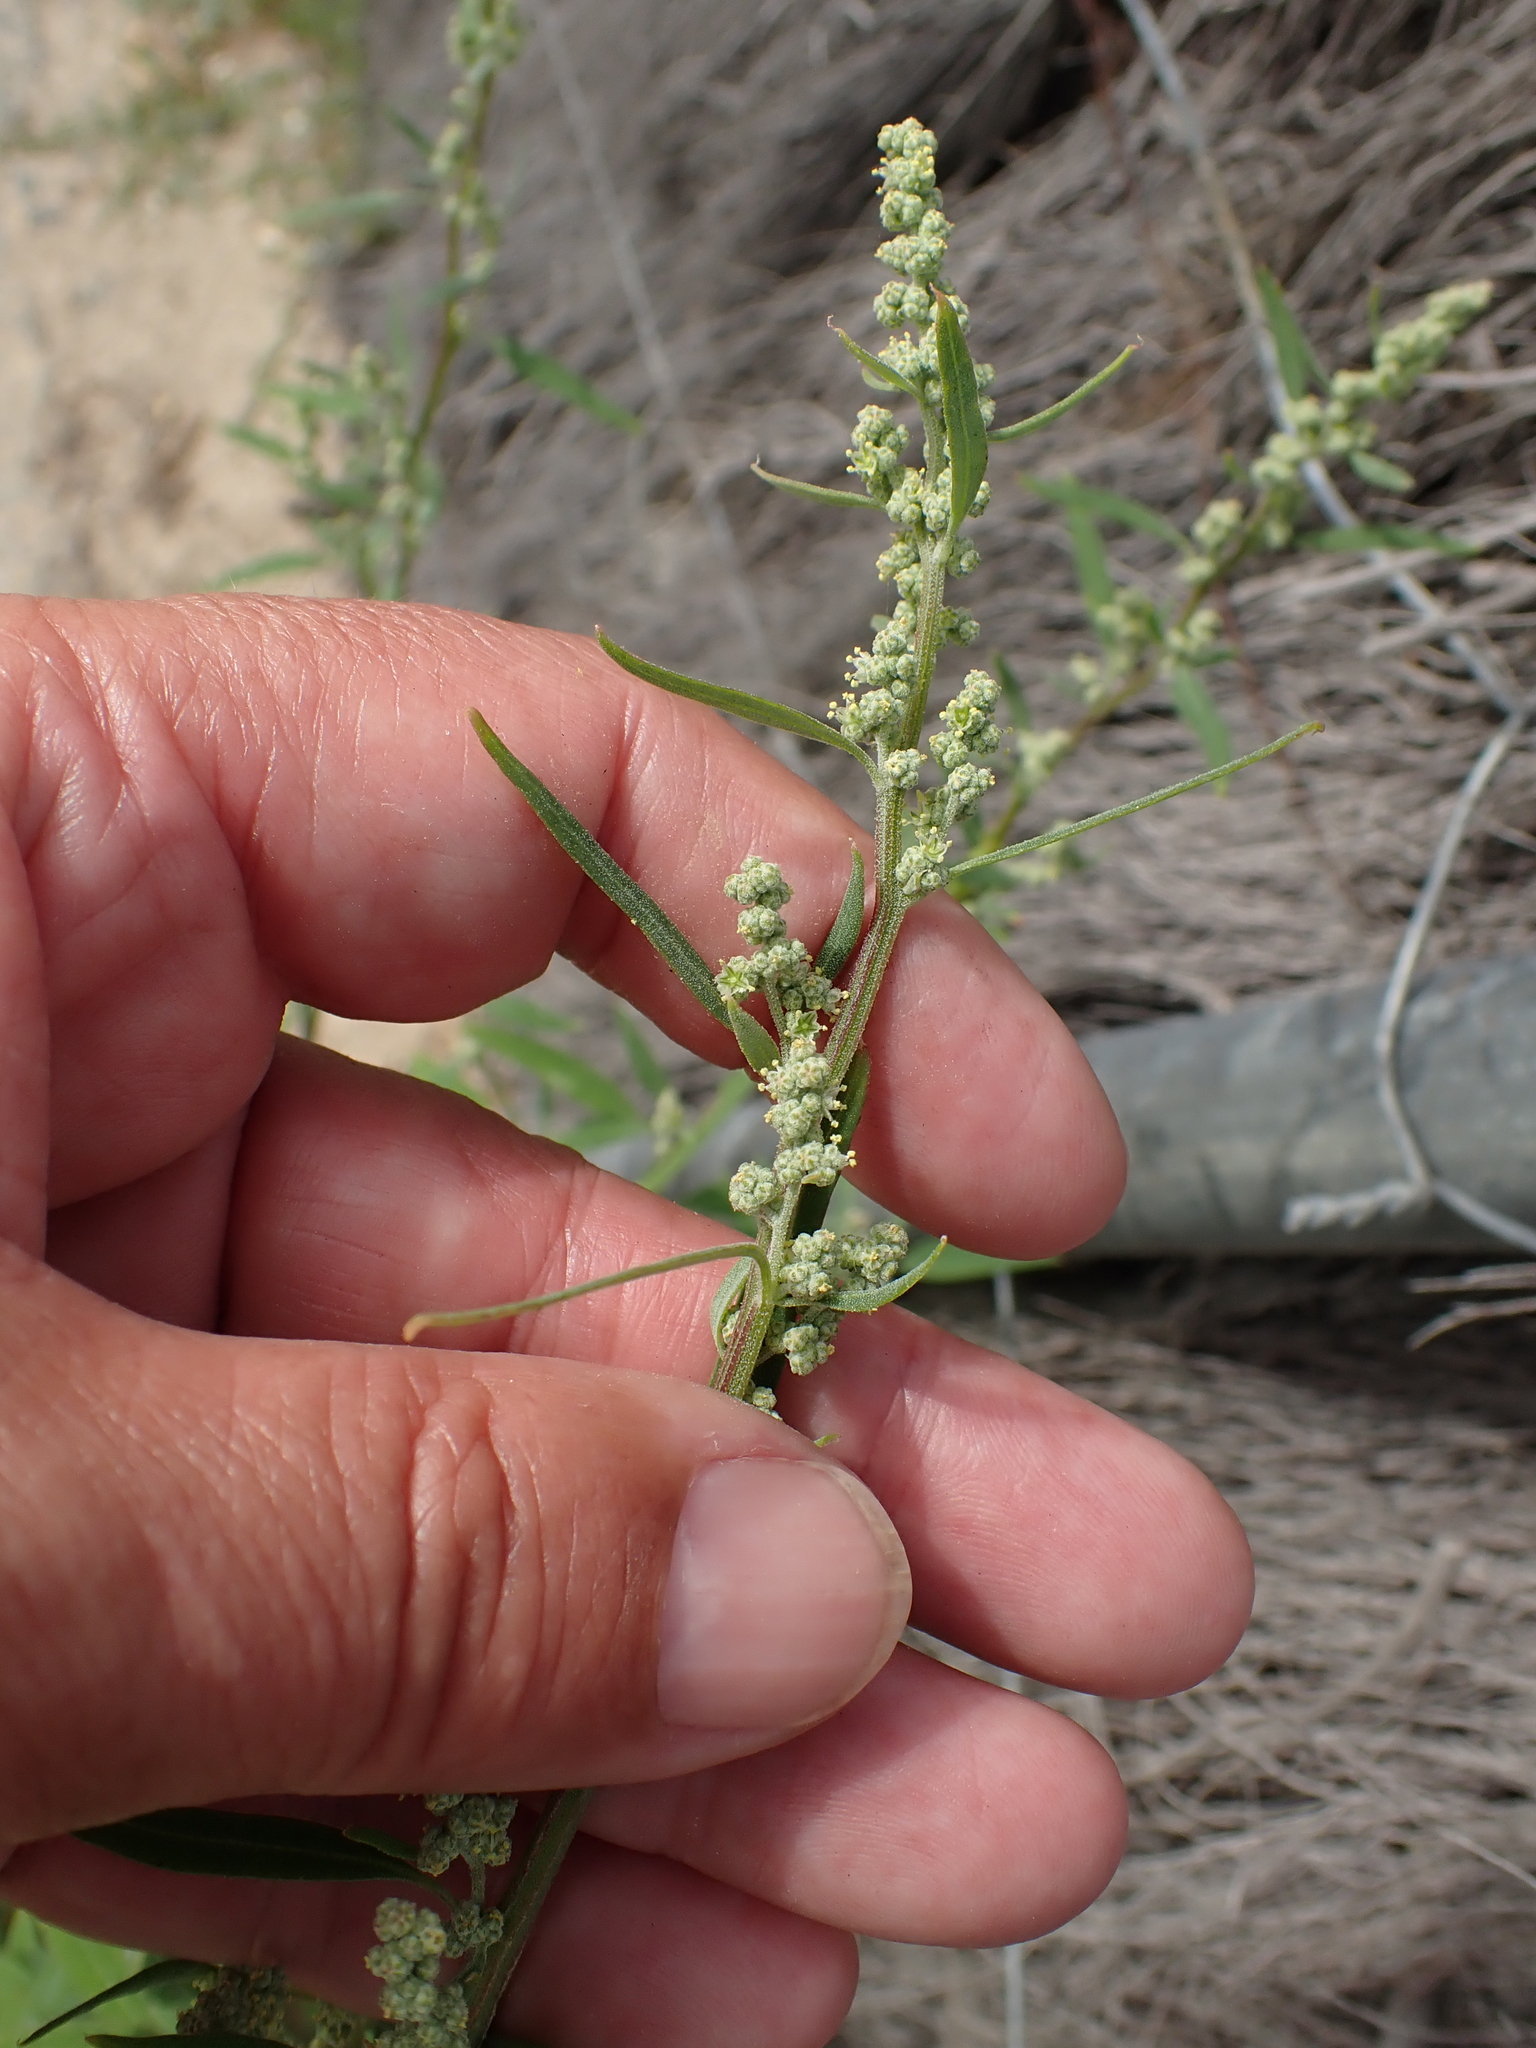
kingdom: Plantae
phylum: Tracheophyta
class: Magnoliopsida
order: Caryophyllales
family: Amaranthaceae
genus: Chenopodium
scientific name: Chenopodium album
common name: Fat-hen
